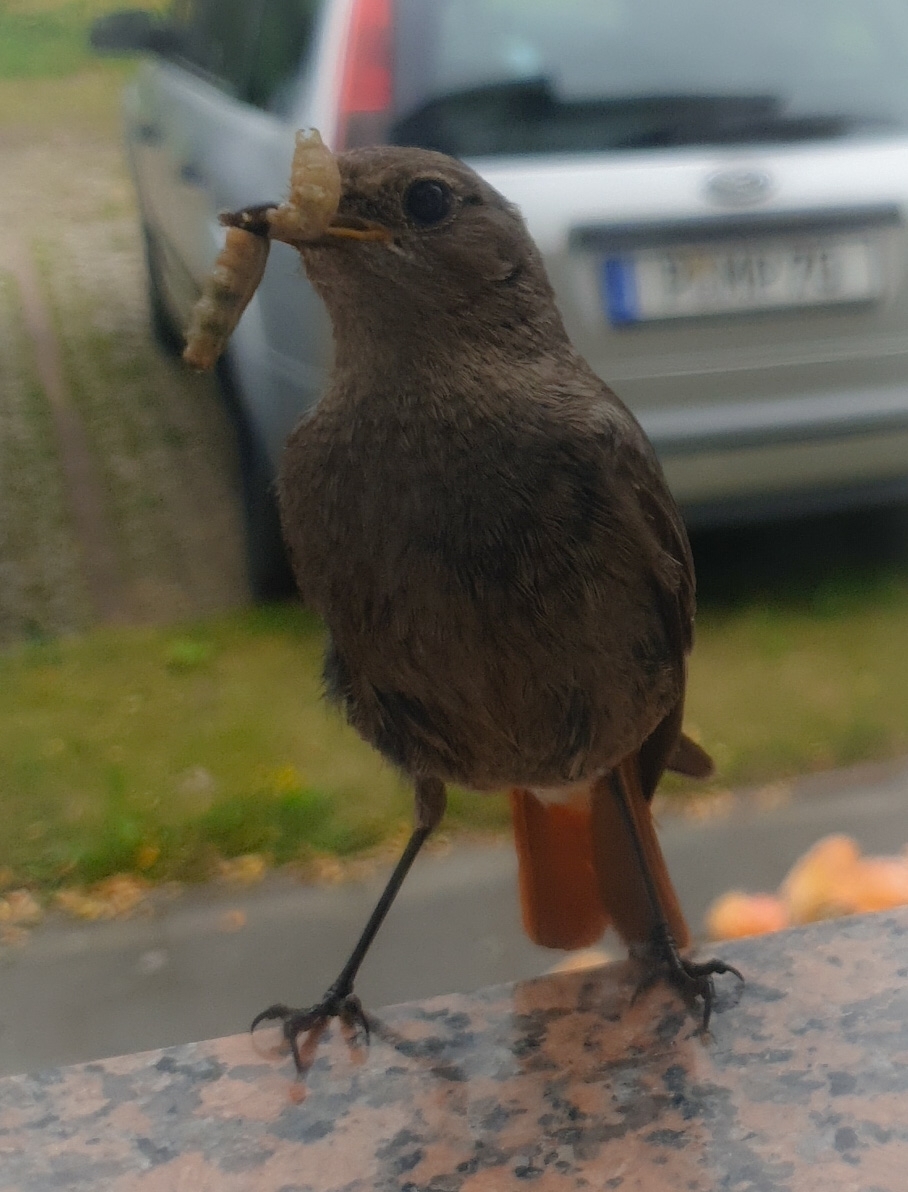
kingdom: Animalia
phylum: Chordata
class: Aves
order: Passeriformes
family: Muscicapidae
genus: Phoenicurus
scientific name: Phoenicurus ochruros
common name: Black redstart
